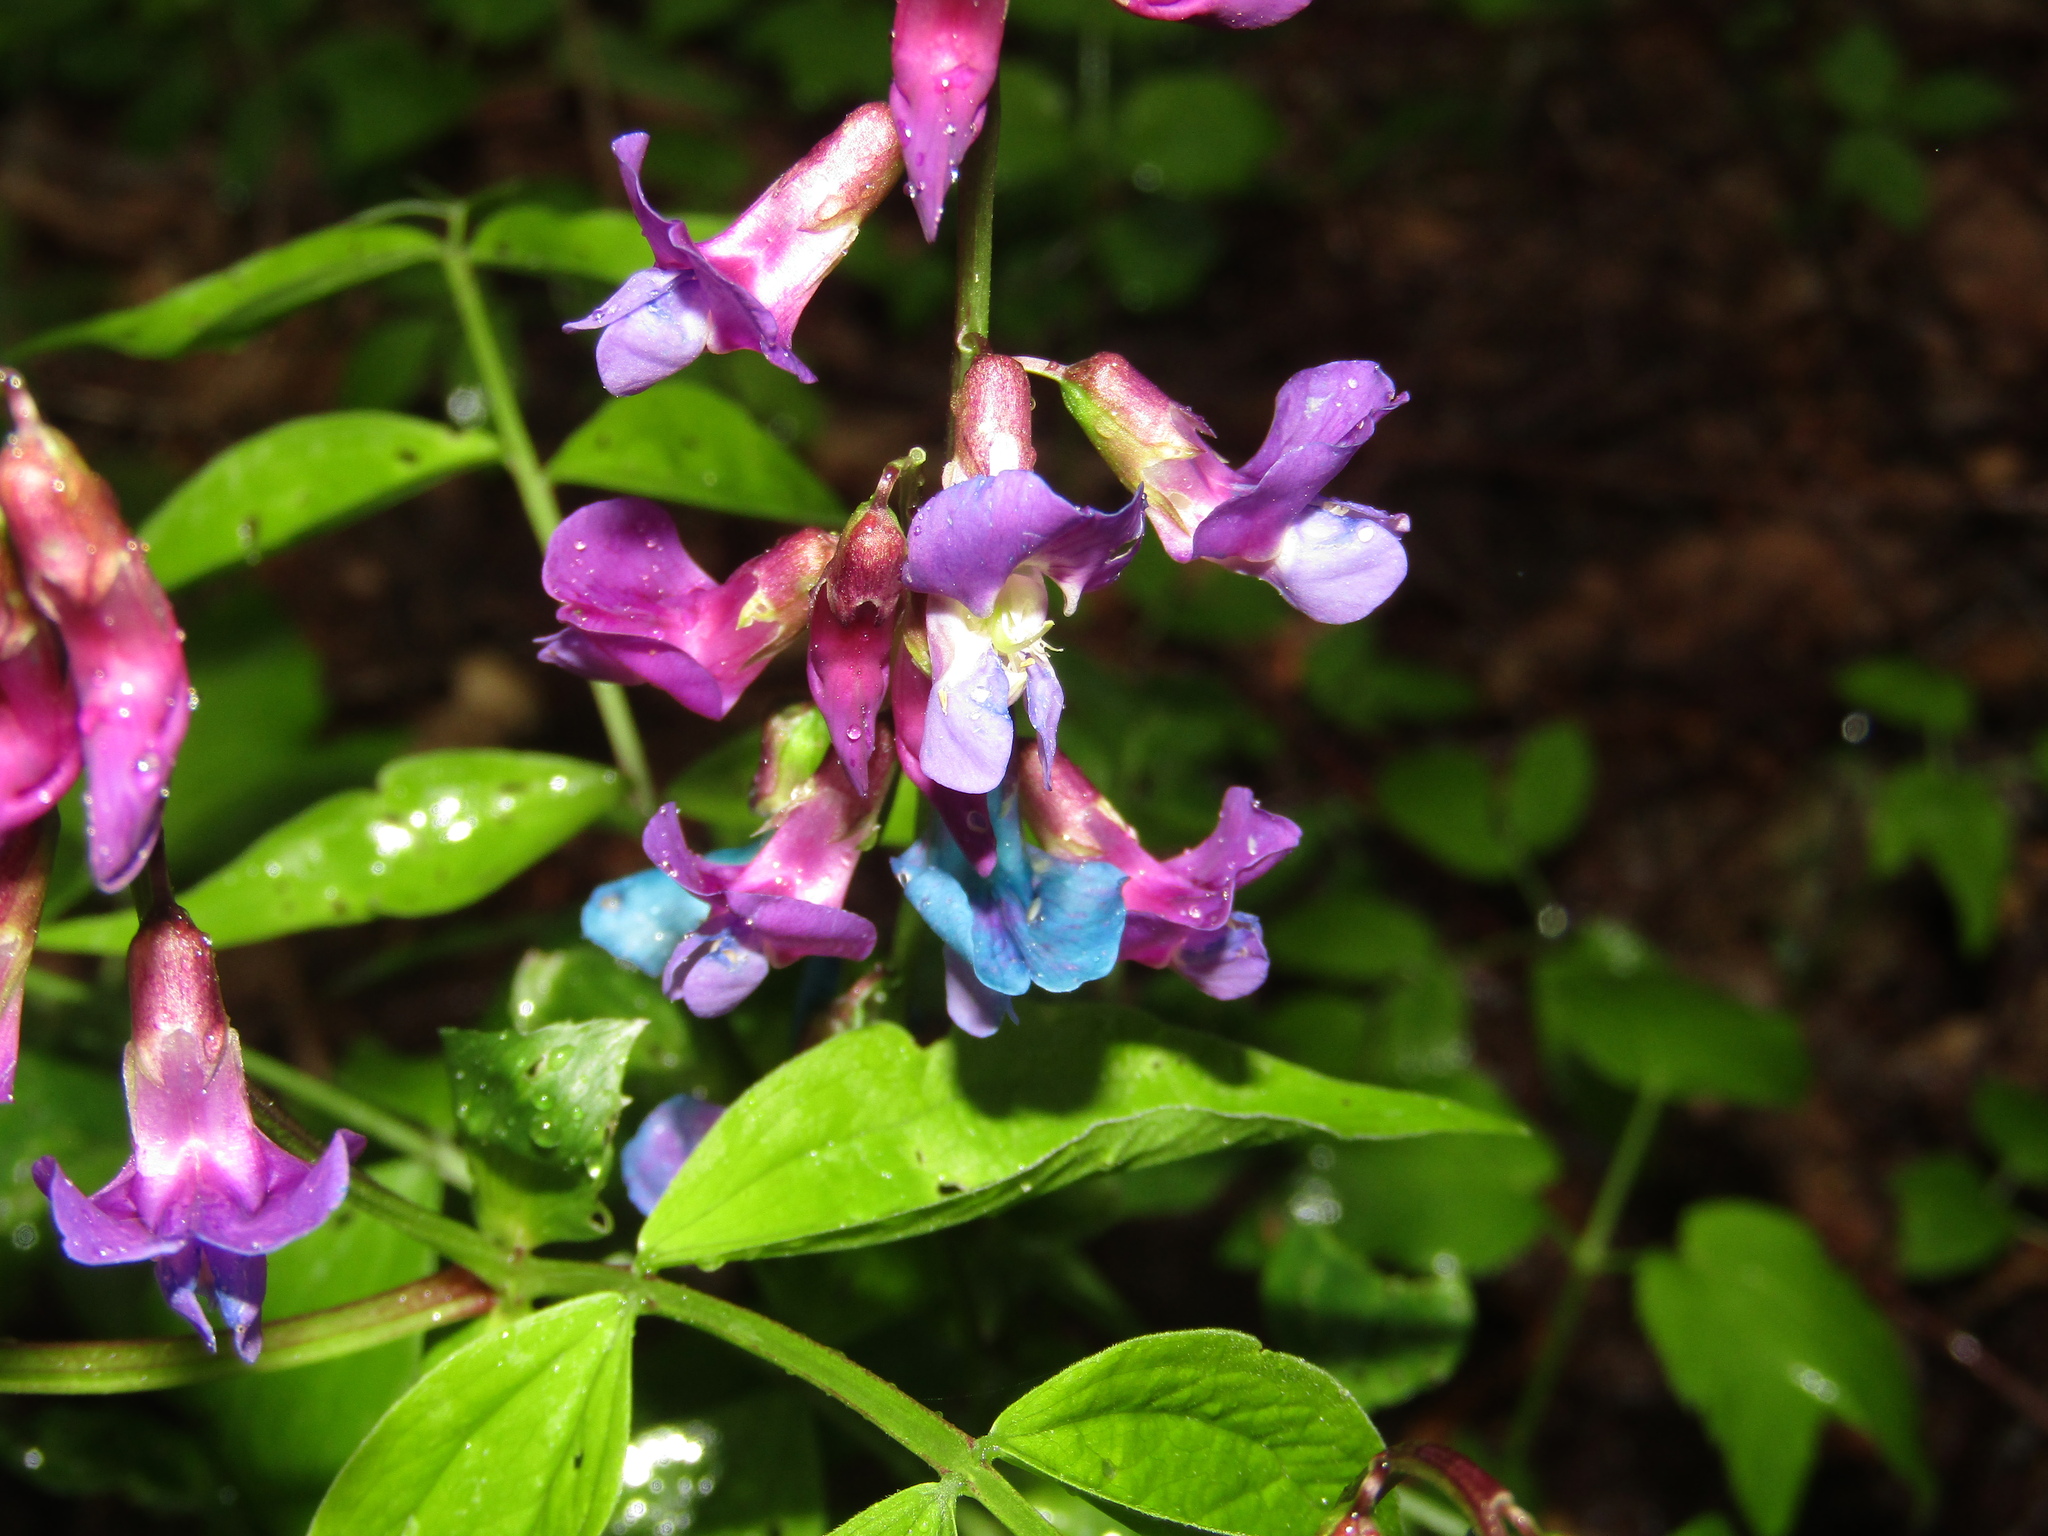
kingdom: Plantae
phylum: Tracheophyta
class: Magnoliopsida
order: Fabales
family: Fabaceae
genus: Lathyrus
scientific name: Lathyrus vernus
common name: Spring pea
